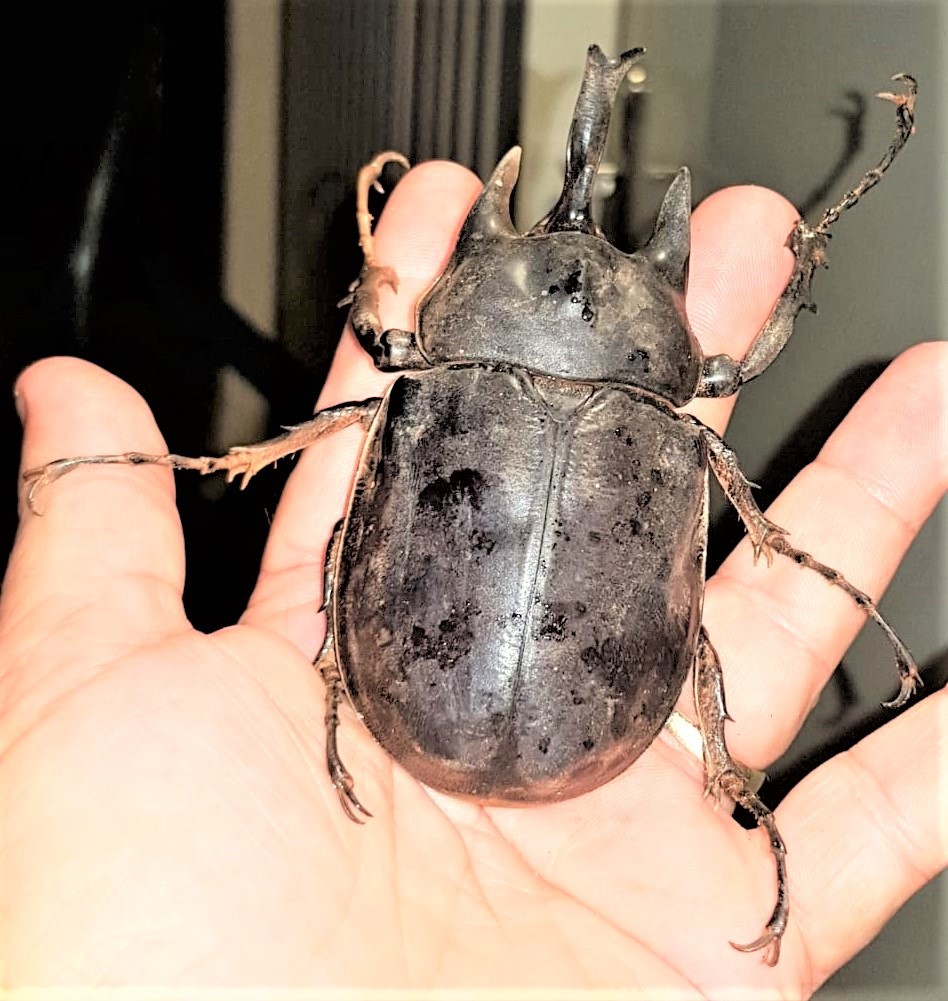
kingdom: Animalia
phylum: Arthropoda
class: Insecta
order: Coleoptera
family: Scarabaeidae
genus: Megasoma
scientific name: Megasoma actaeon
